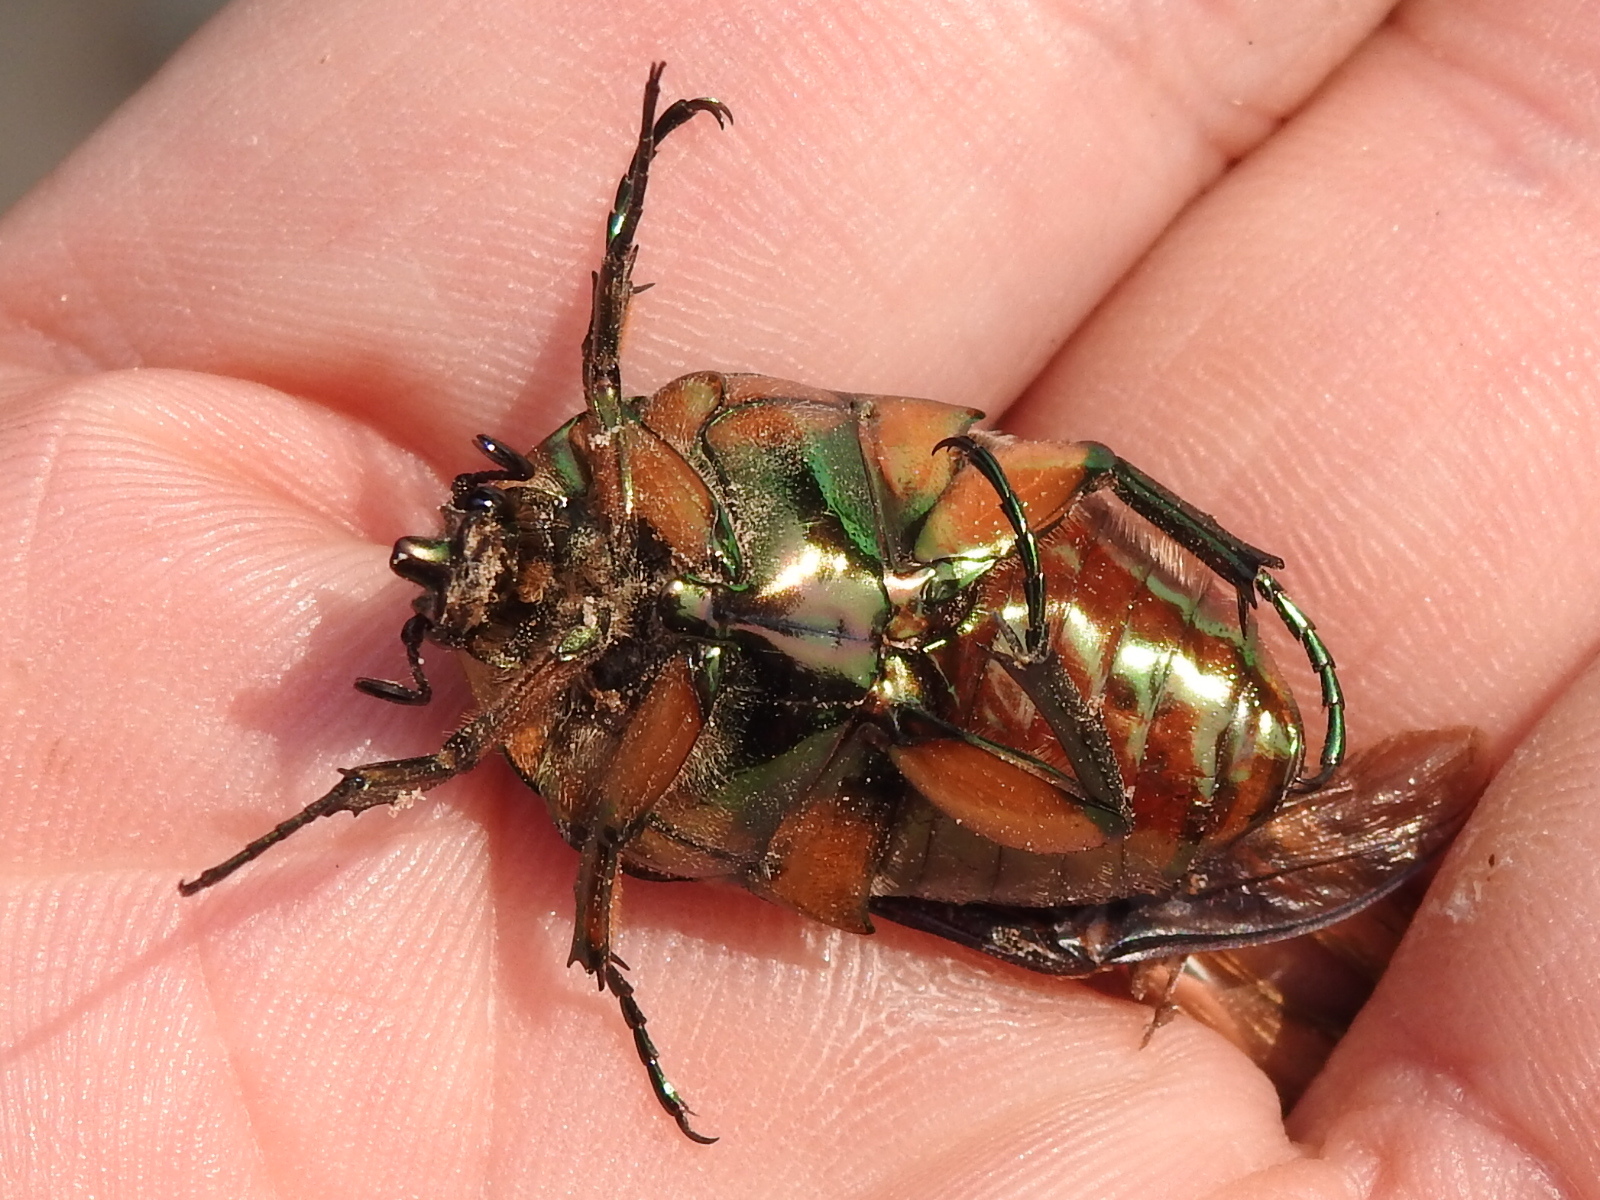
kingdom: Animalia
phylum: Arthropoda
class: Insecta
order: Coleoptera
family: Scarabaeidae
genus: Cotinis
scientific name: Cotinis nitida
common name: Common green june beetle
